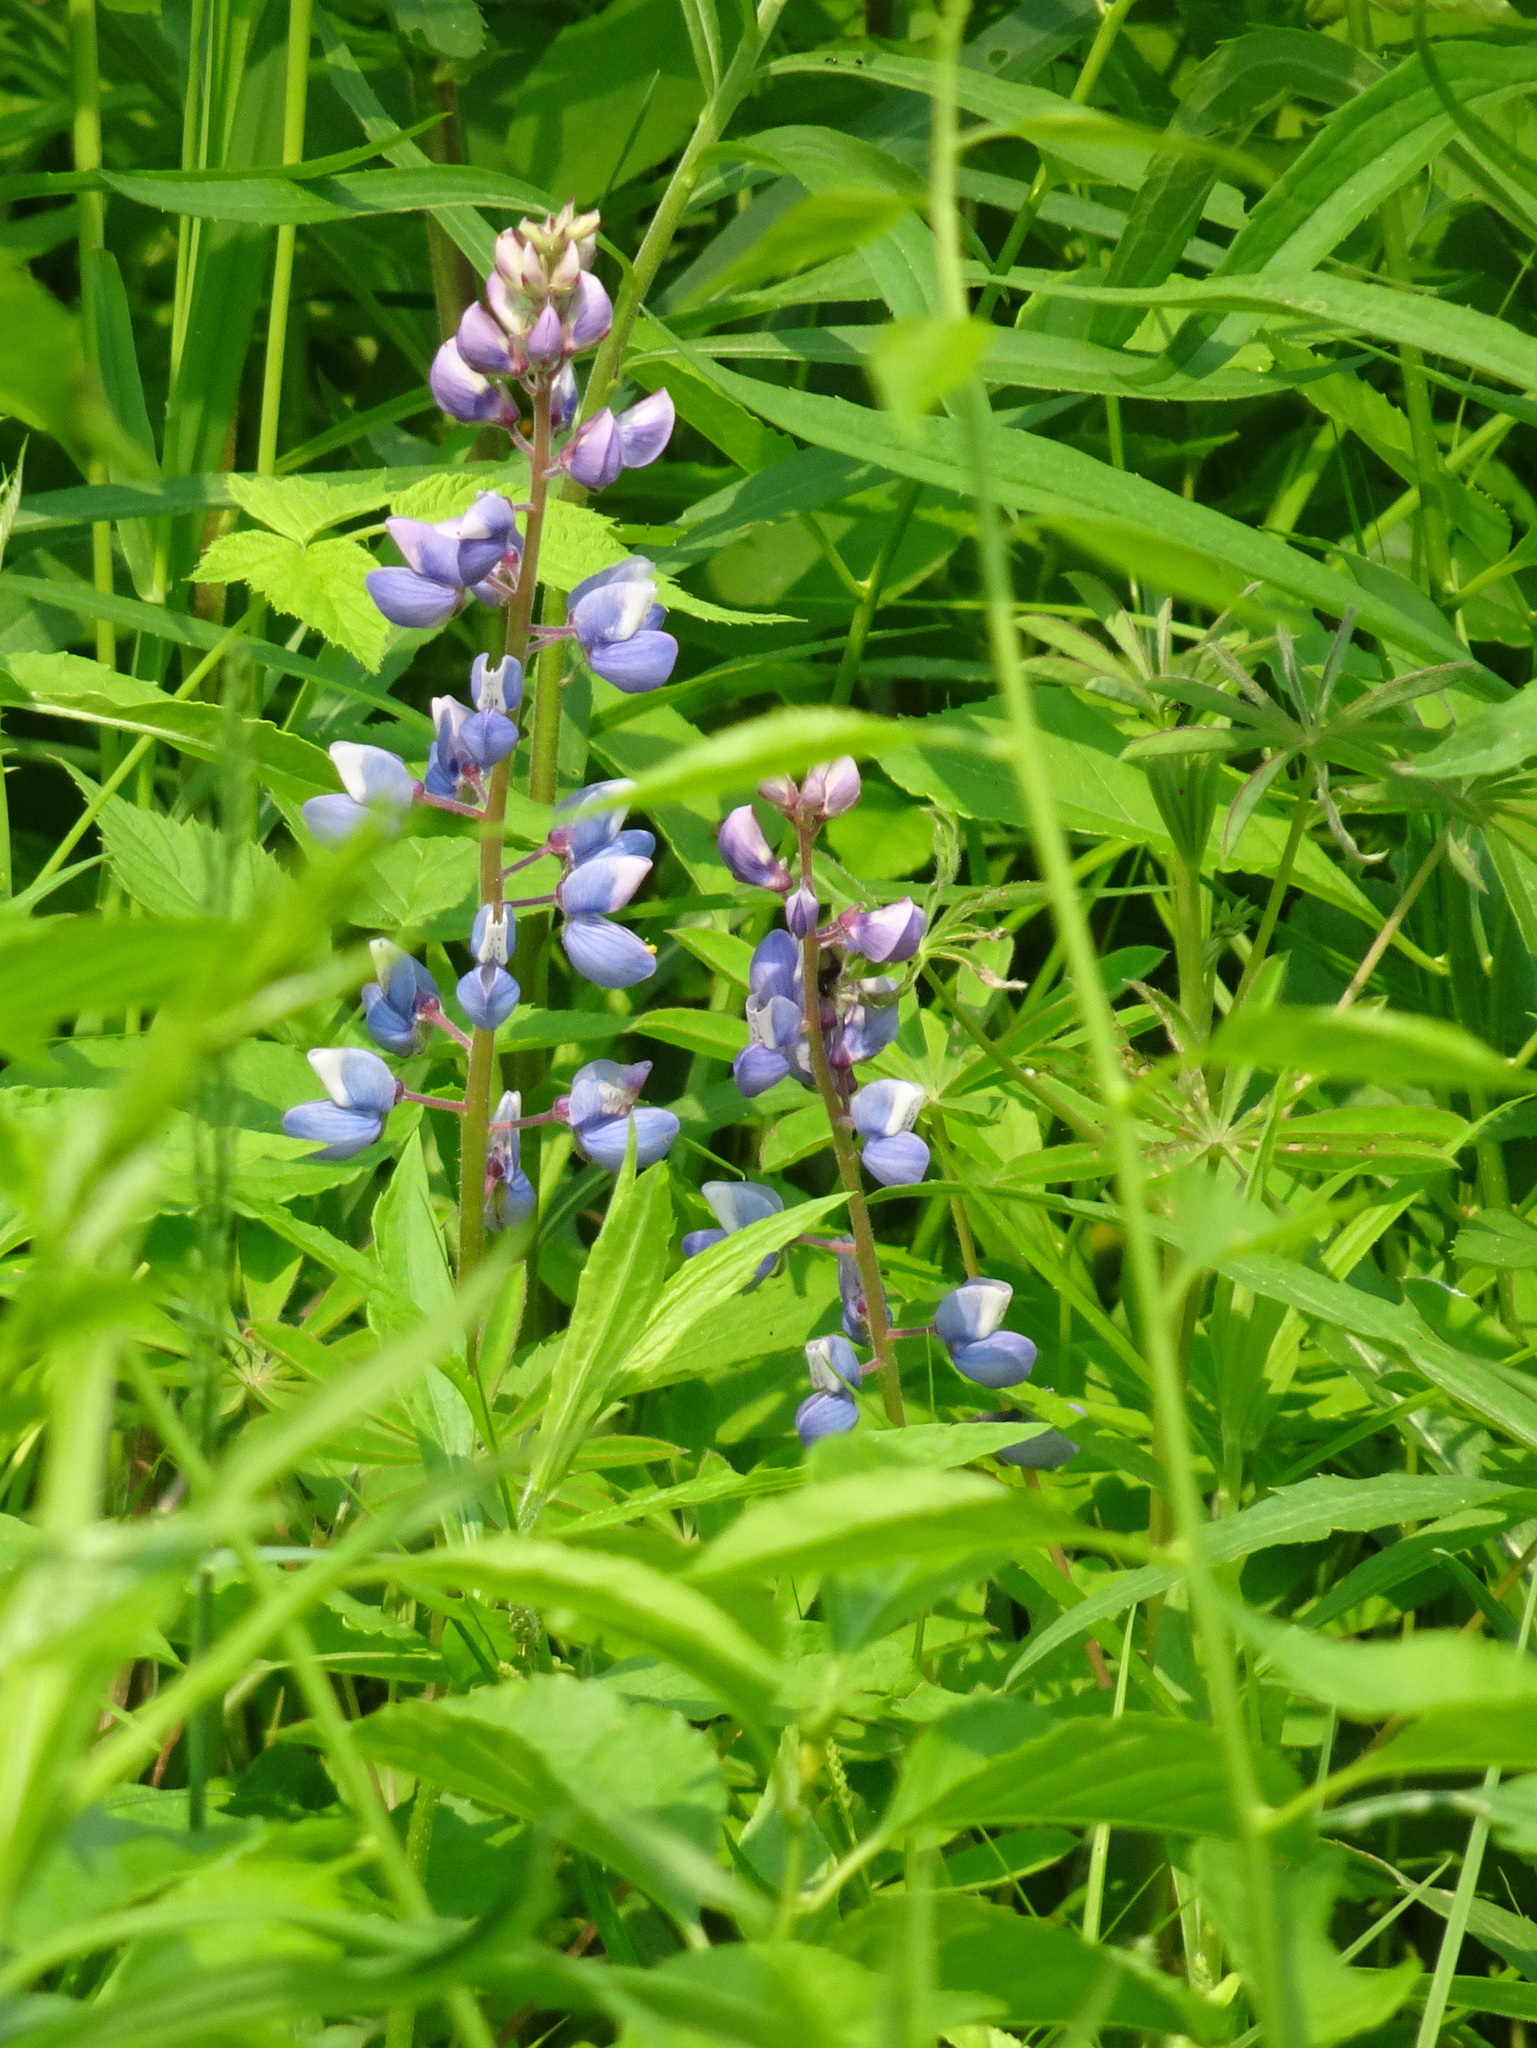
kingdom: Plantae
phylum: Tracheophyta
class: Magnoliopsida
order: Fabales
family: Fabaceae
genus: Lupinus
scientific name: Lupinus perennis
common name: Sundial lupine
